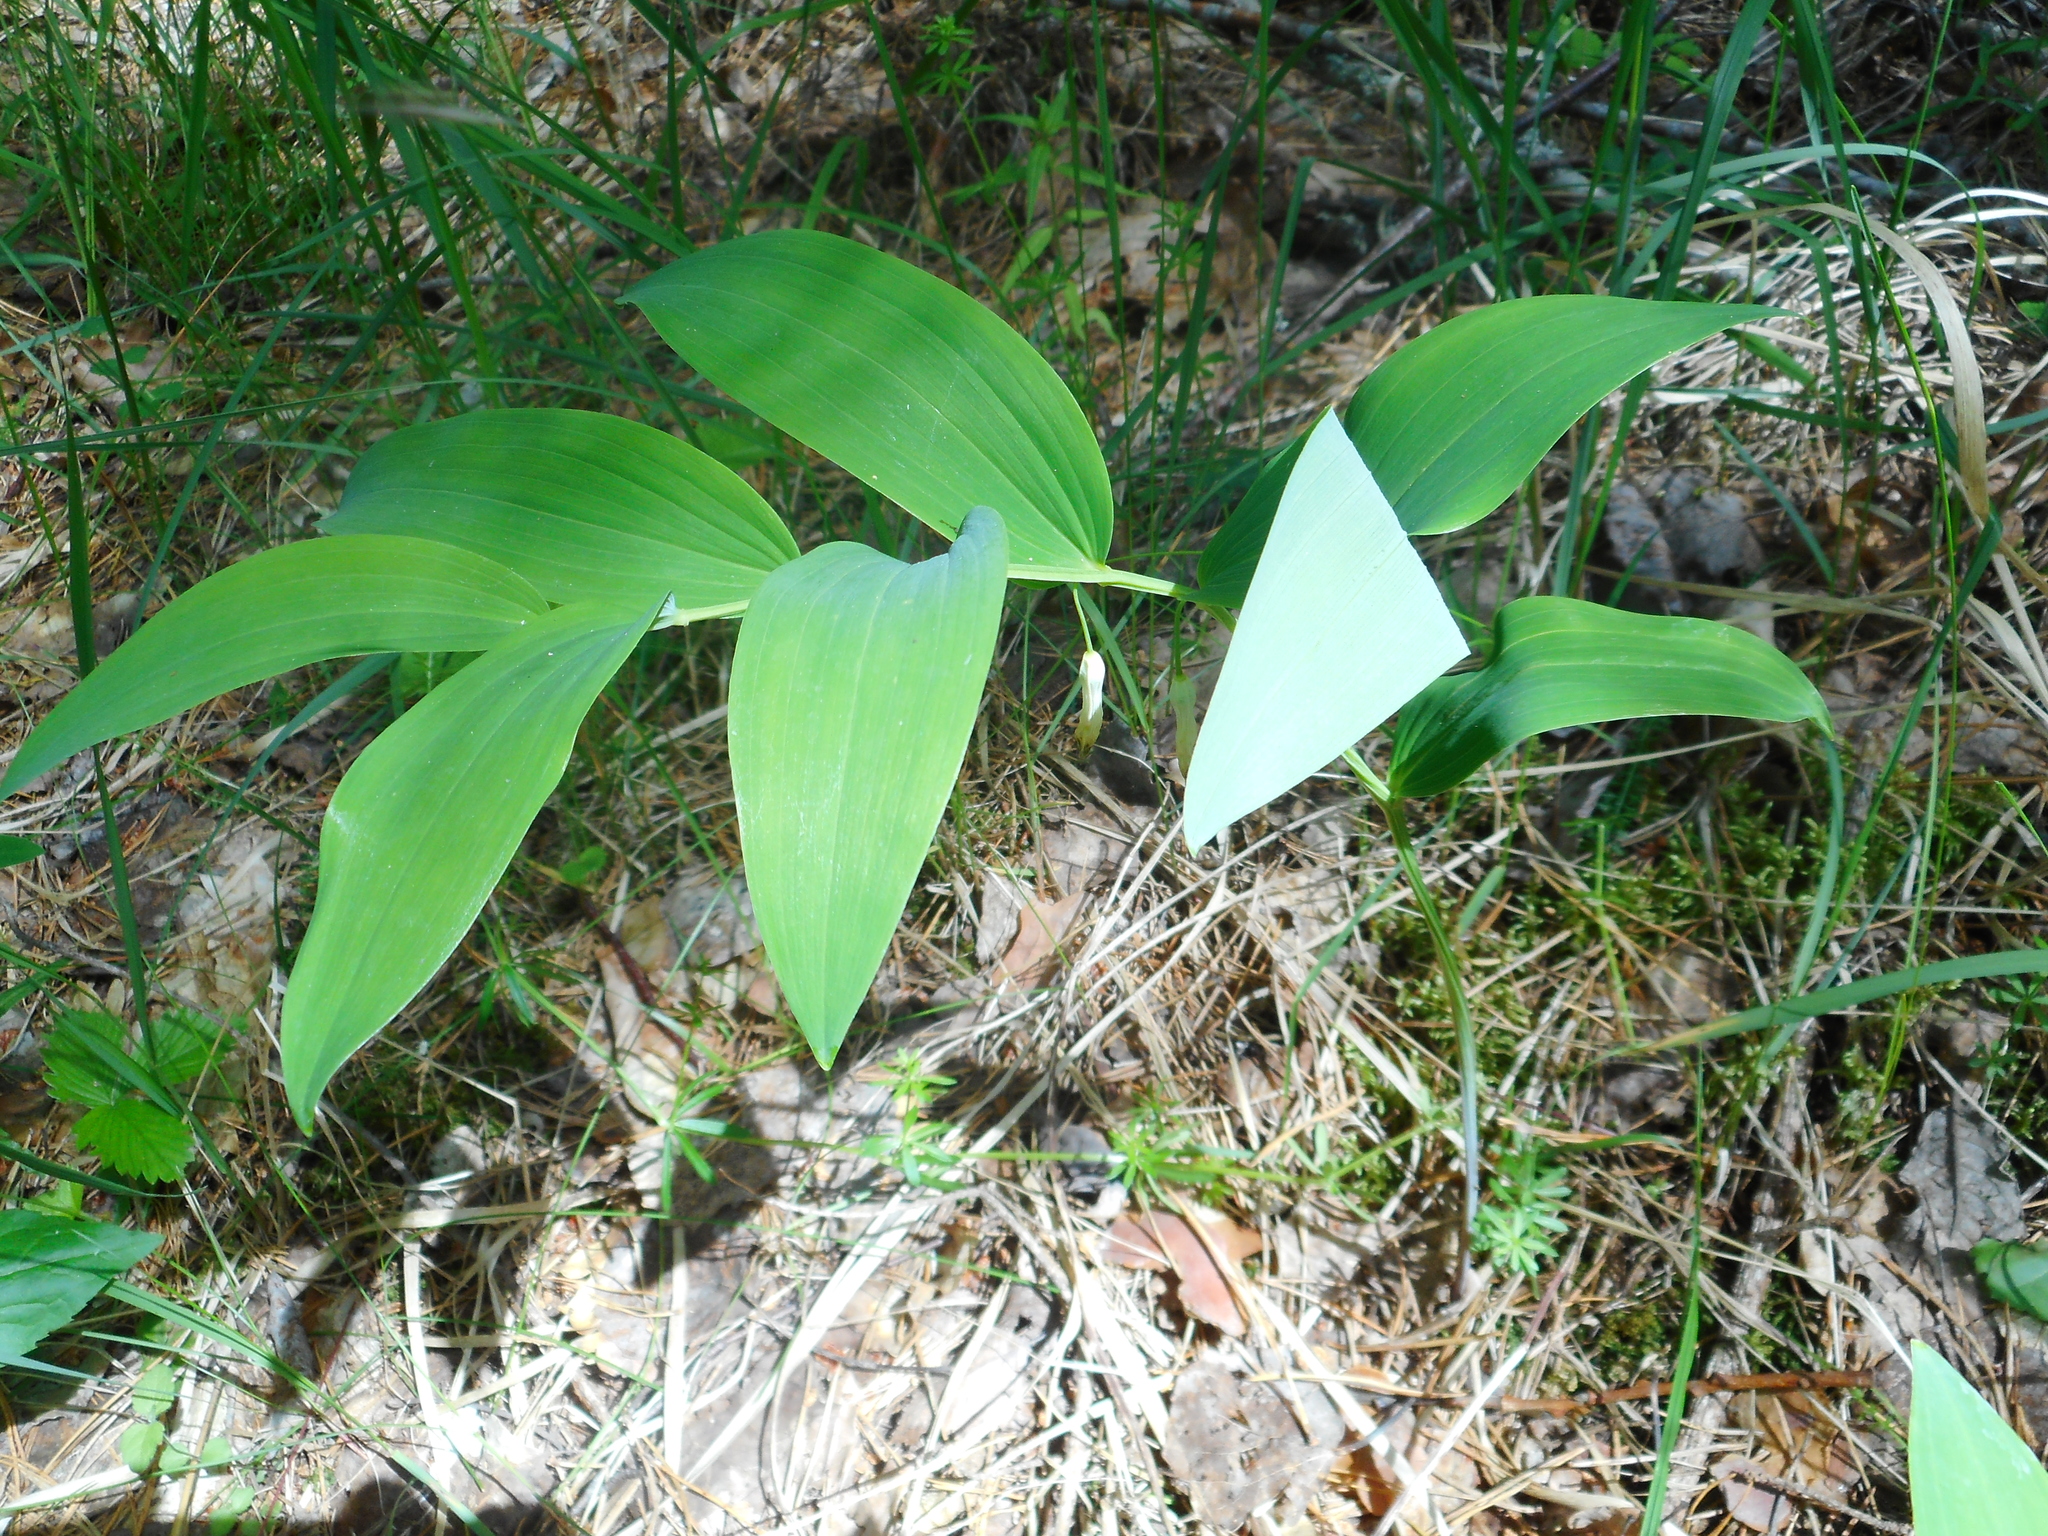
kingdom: Plantae
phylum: Tracheophyta
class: Liliopsida
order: Asparagales
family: Asparagaceae
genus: Polygonatum
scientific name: Polygonatum odoratum
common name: Angular solomon's-seal
